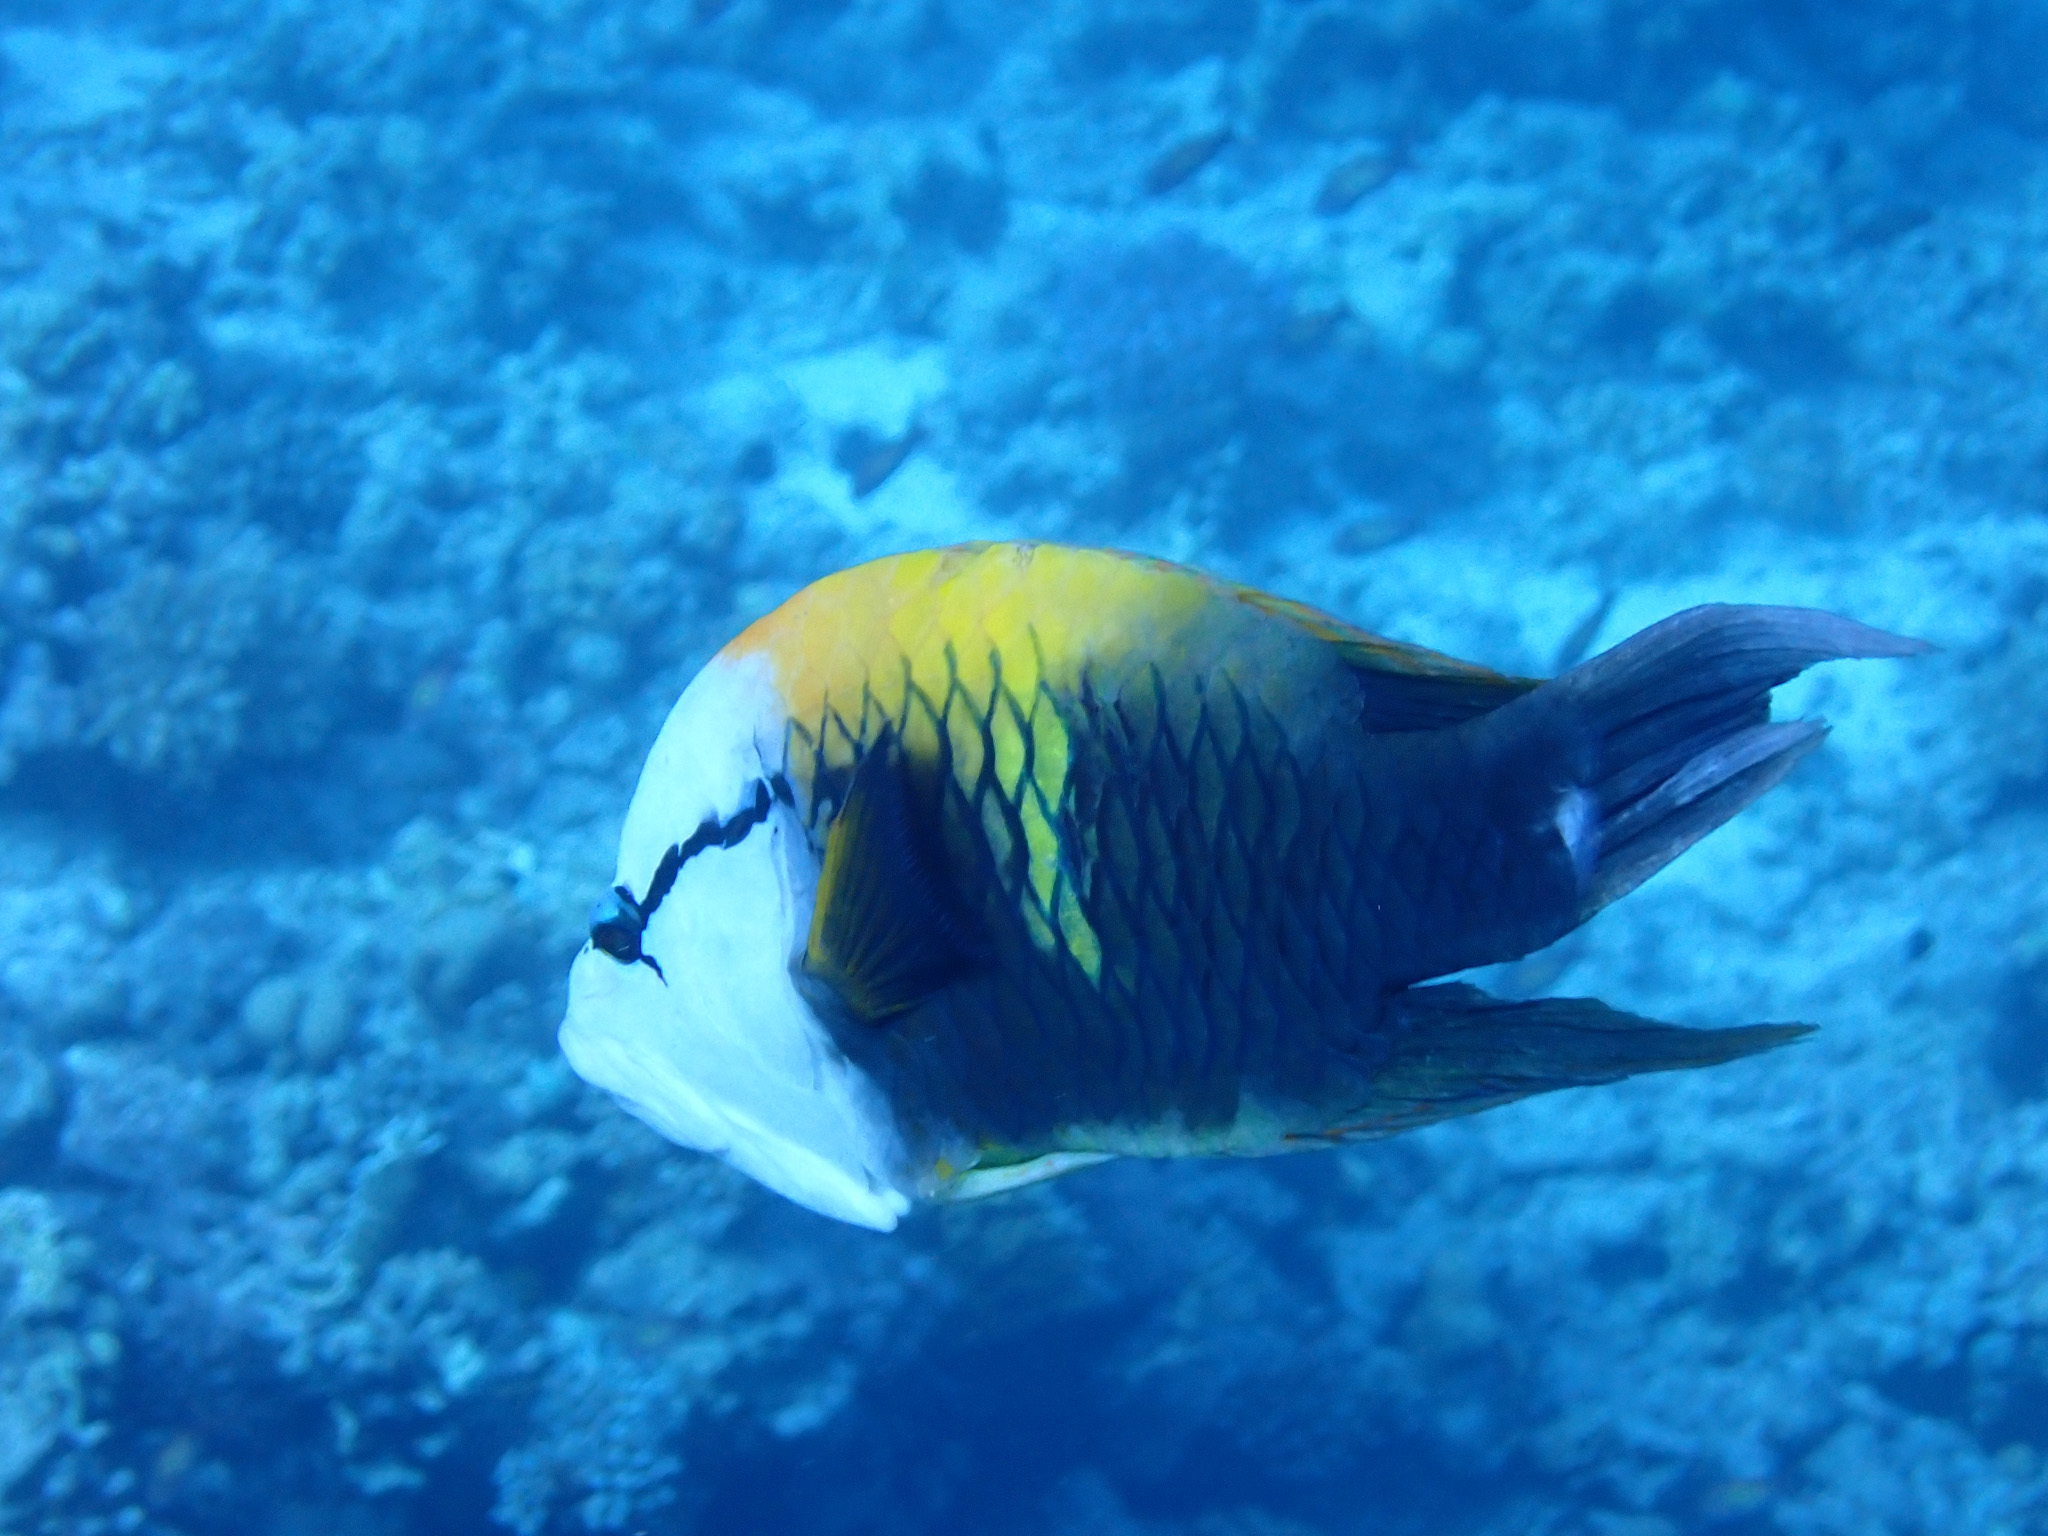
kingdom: Animalia
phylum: Chordata
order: Perciformes
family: Labridae
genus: Epibulus
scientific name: Epibulus insidiator
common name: Slingjaw wrasse
